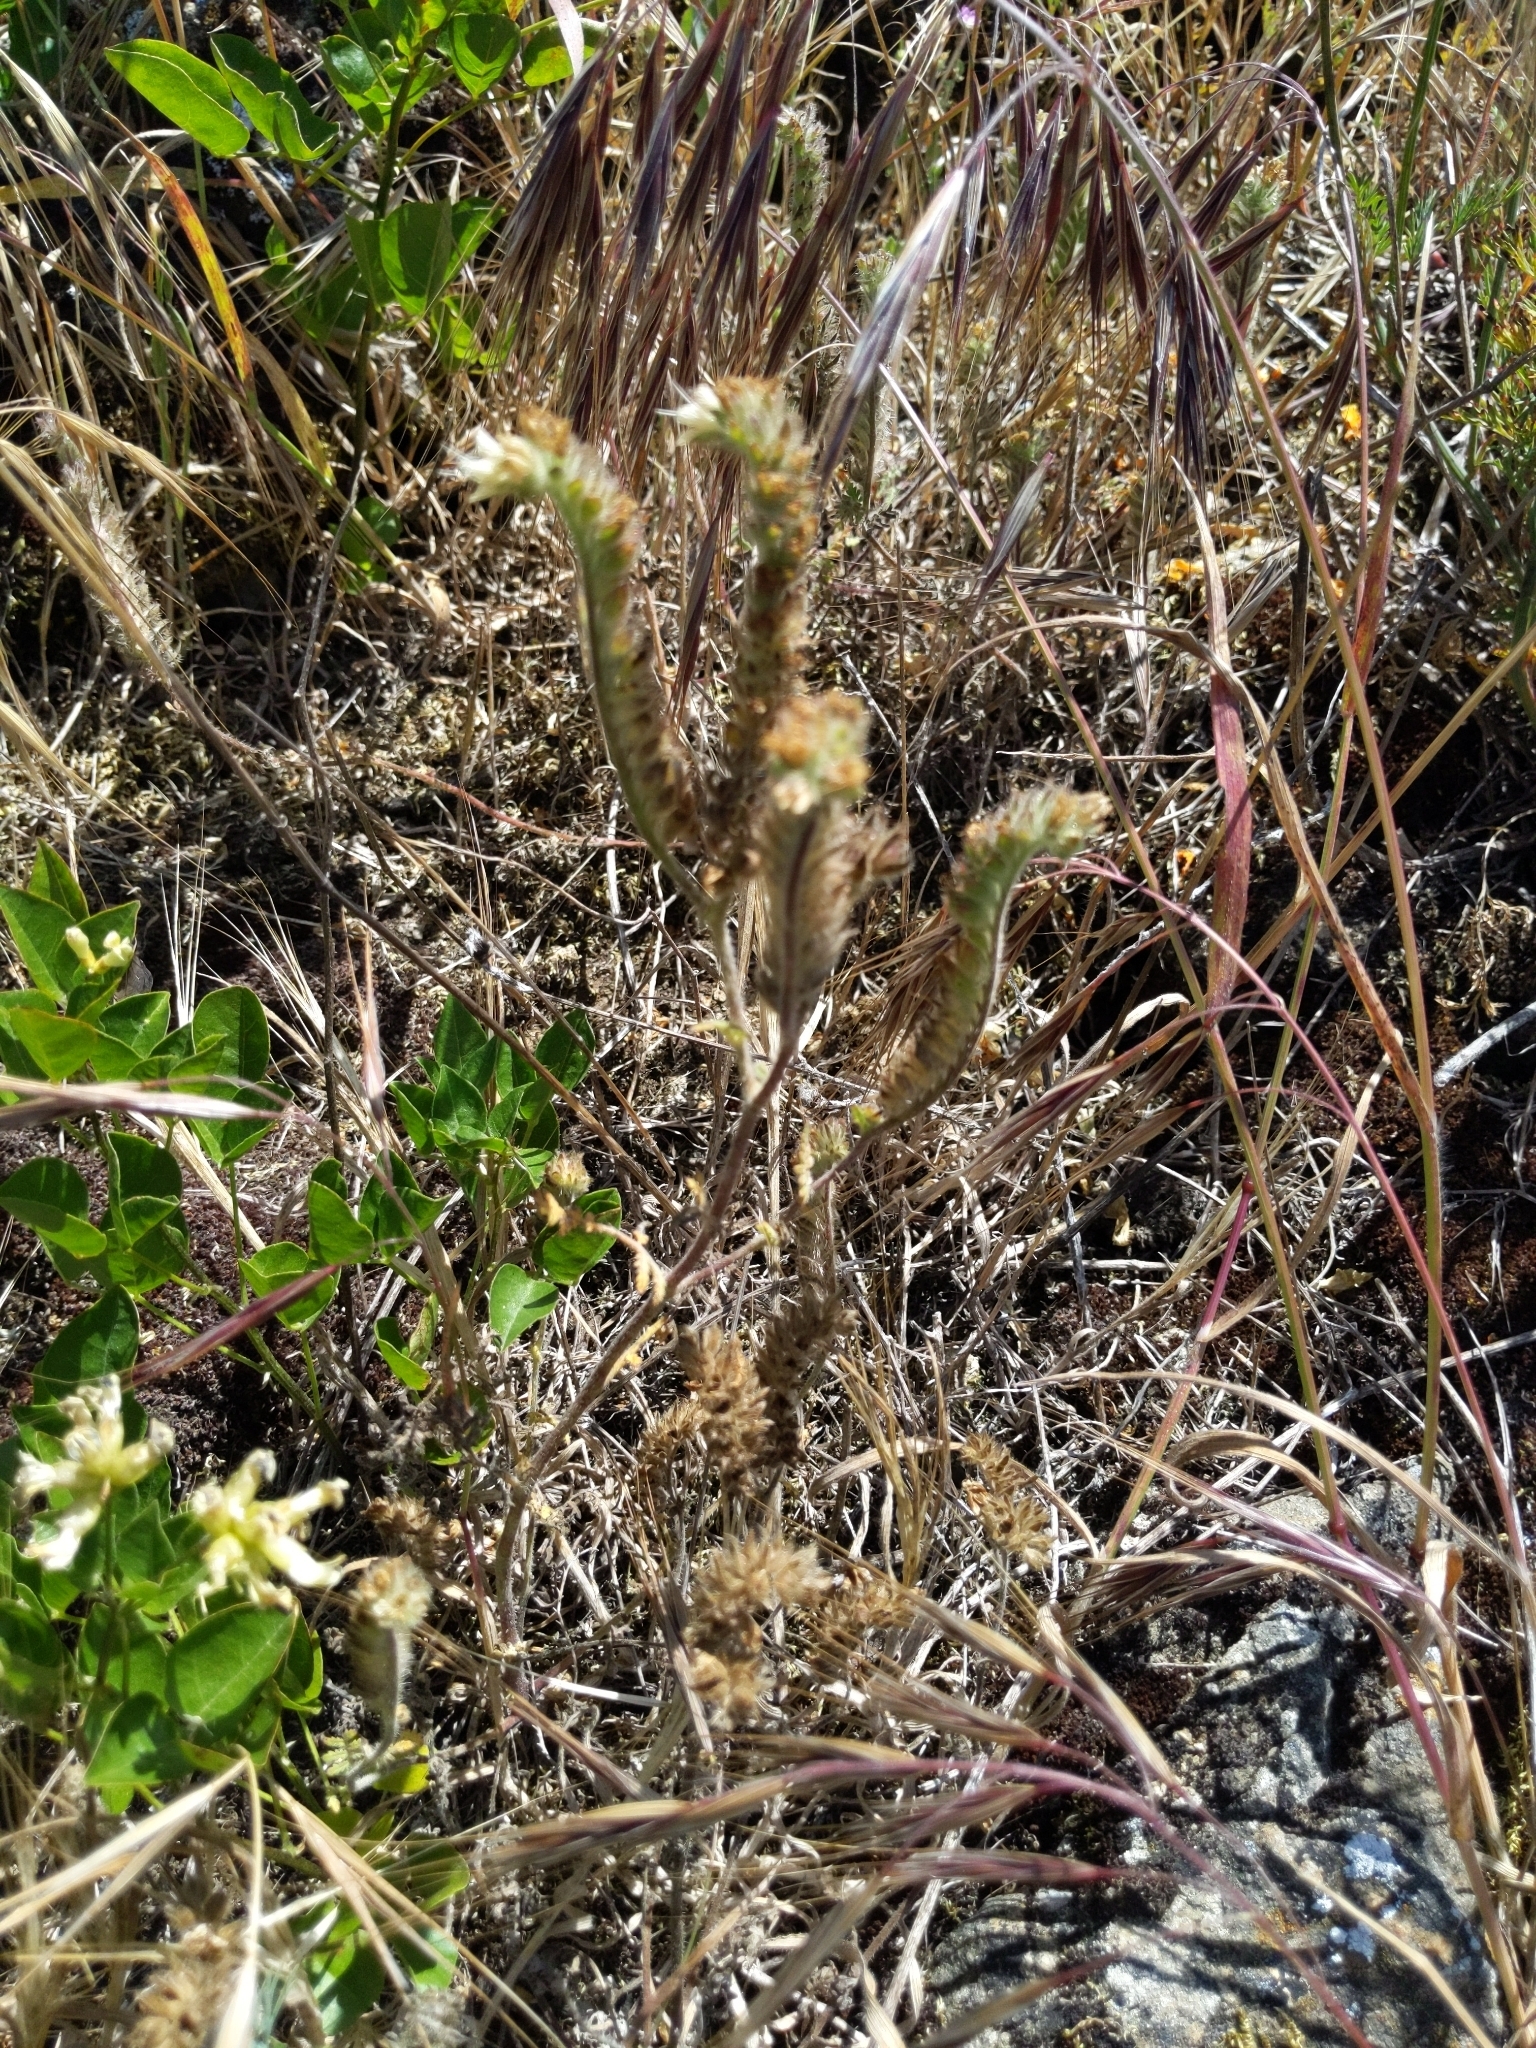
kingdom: Plantae
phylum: Tracheophyta
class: Magnoliopsida
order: Boraginales
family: Hydrophyllaceae
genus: Phacelia
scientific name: Phacelia distans
